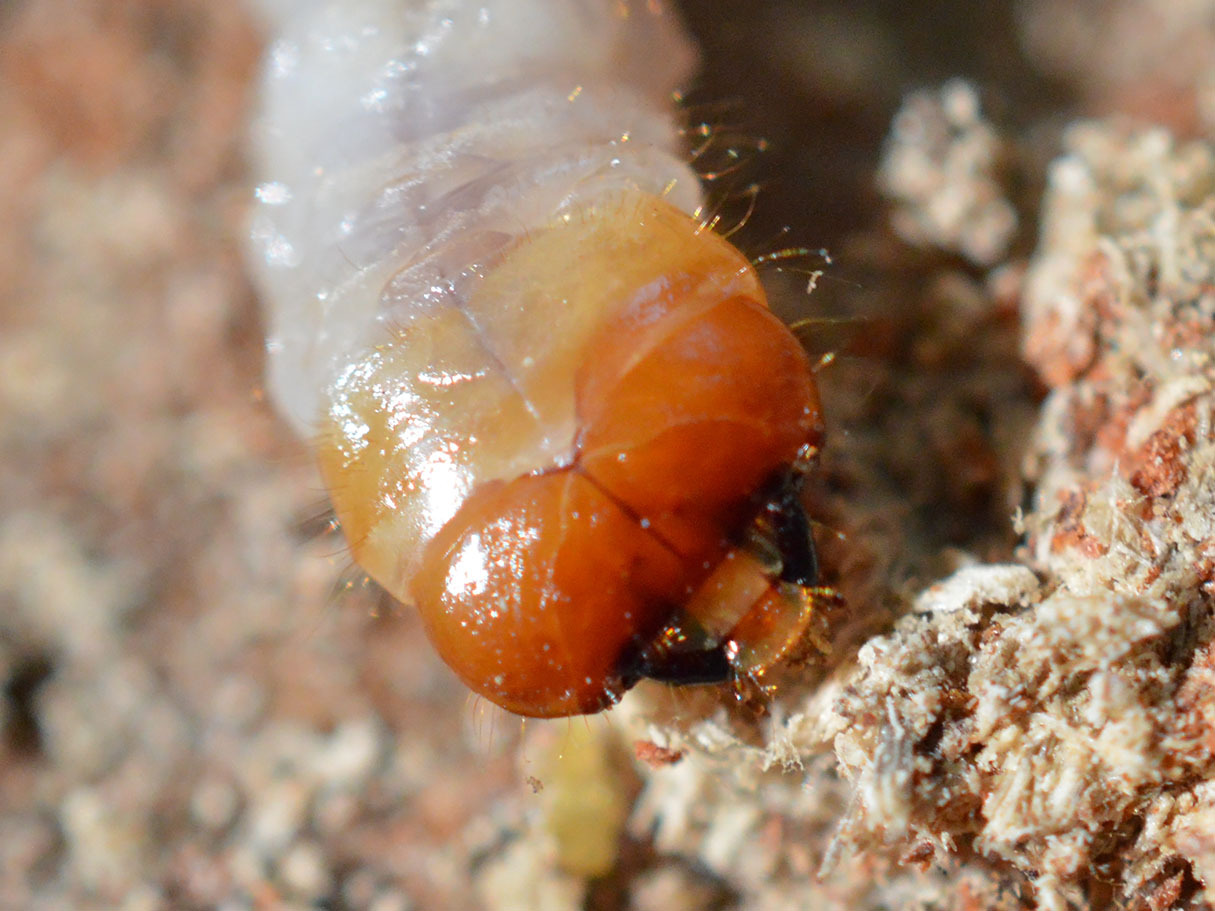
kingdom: Animalia
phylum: Arthropoda
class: Insecta
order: Coleoptera
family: Cerambycidae
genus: Rhagium
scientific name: Rhagium inquisitor
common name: Ribbed pine borer
